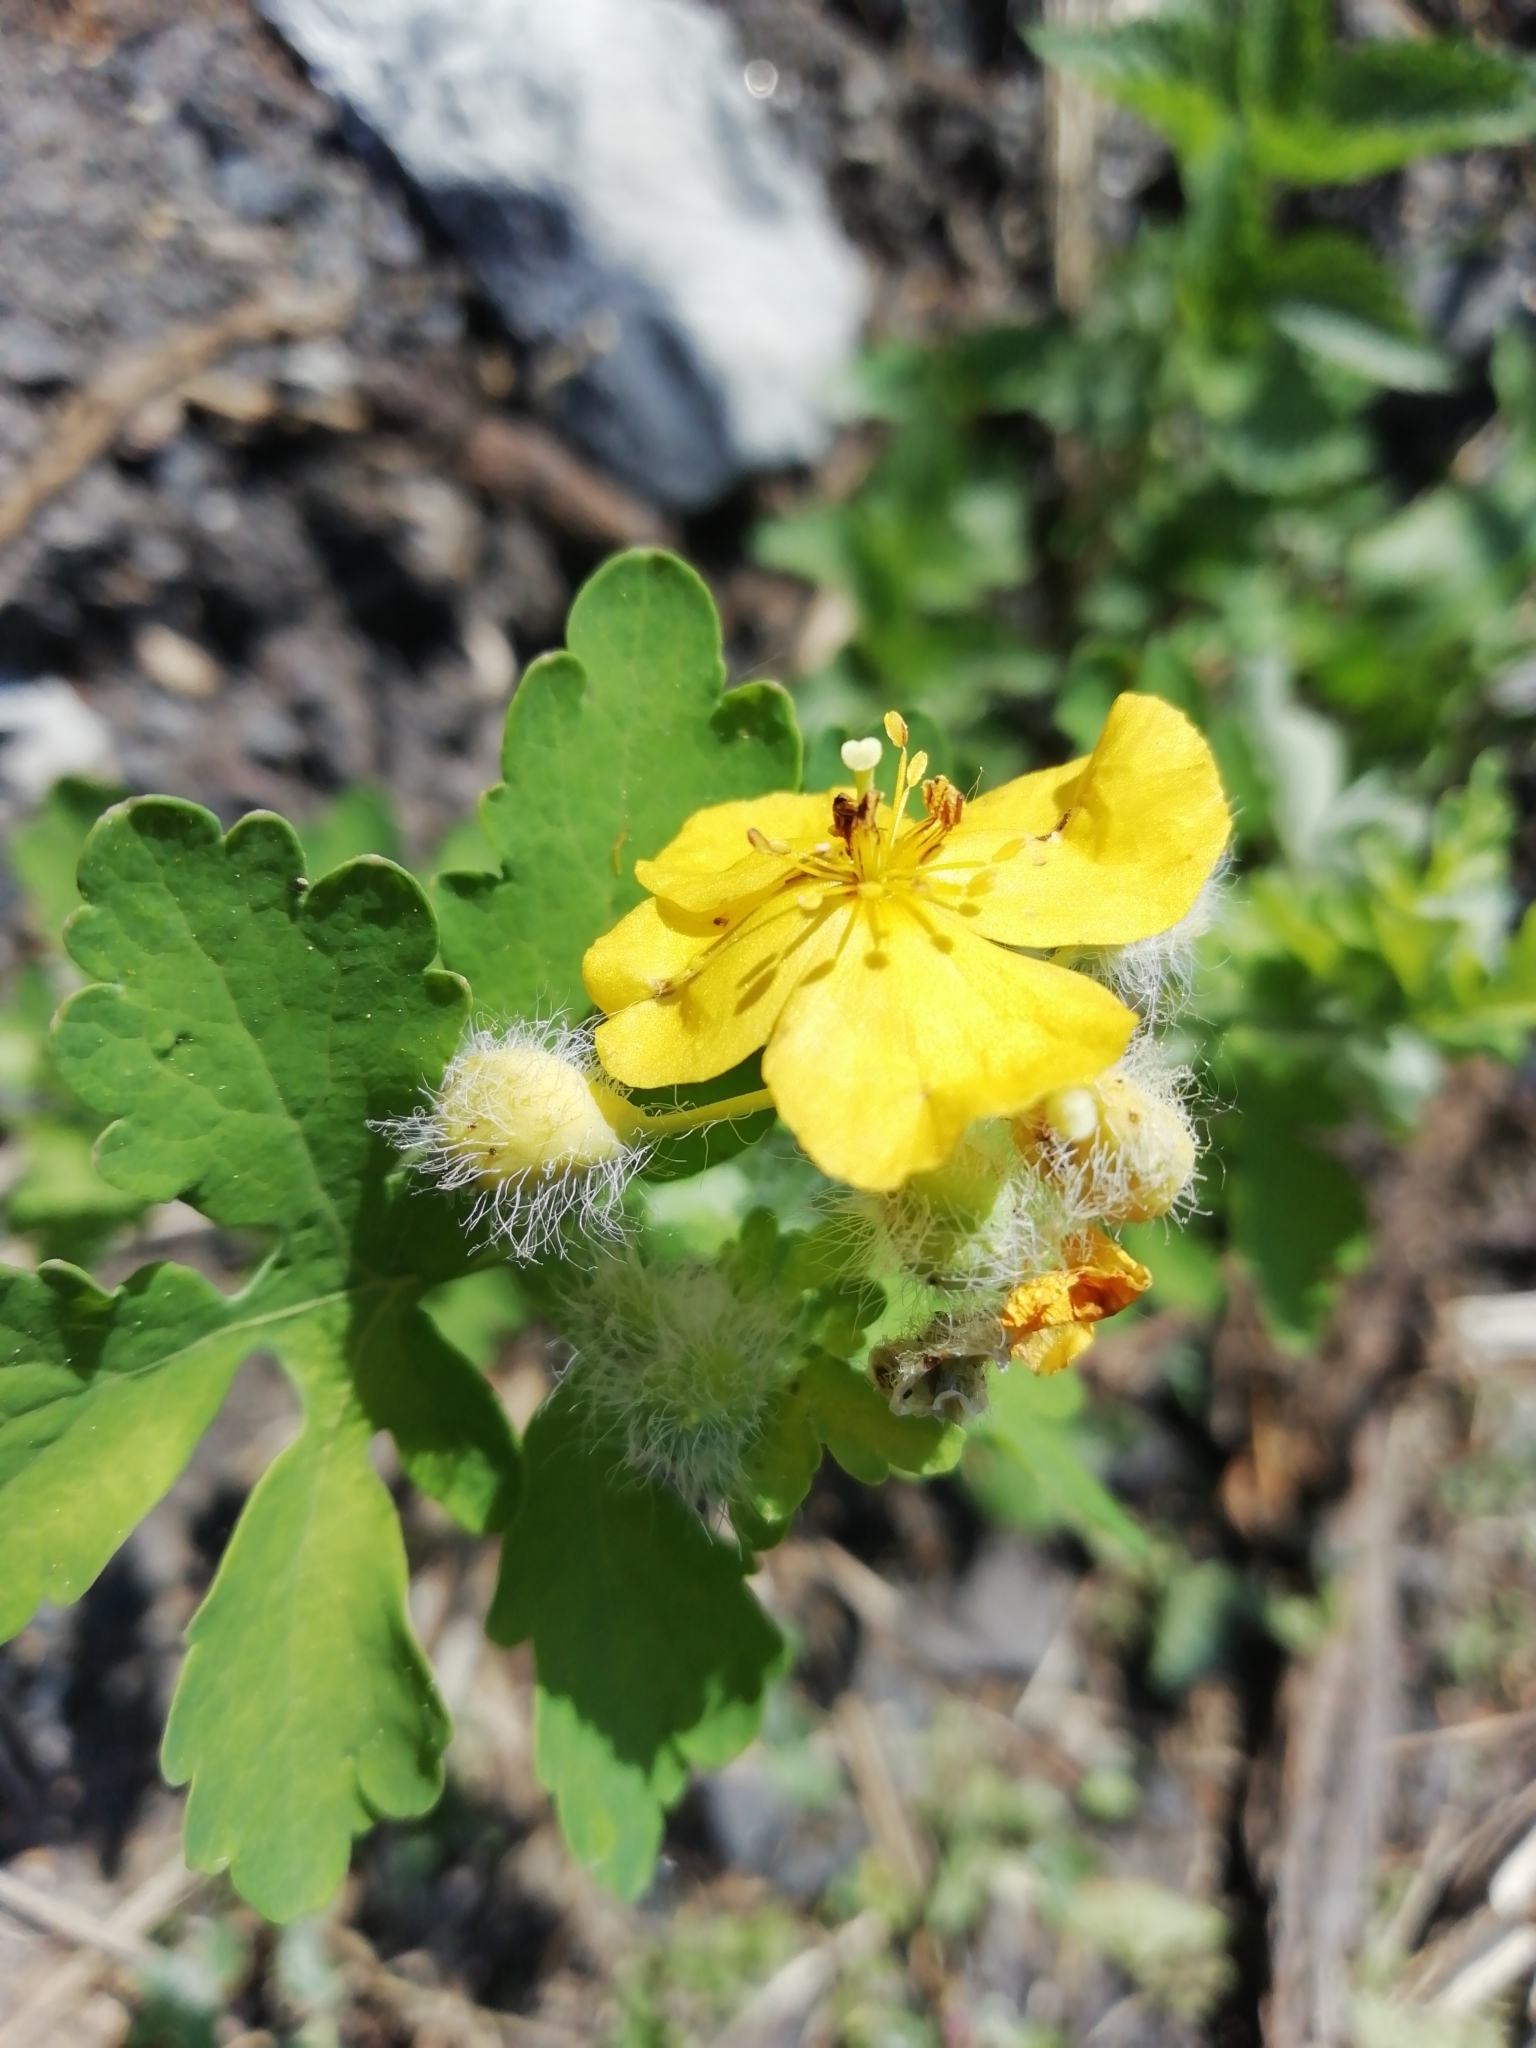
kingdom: Plantae
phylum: Tracheophyta
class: Magnoliopsida
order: Ranunculales
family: Papaveraceae
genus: Chelidonium
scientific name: Chelidonium majus
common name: Greater celandine
